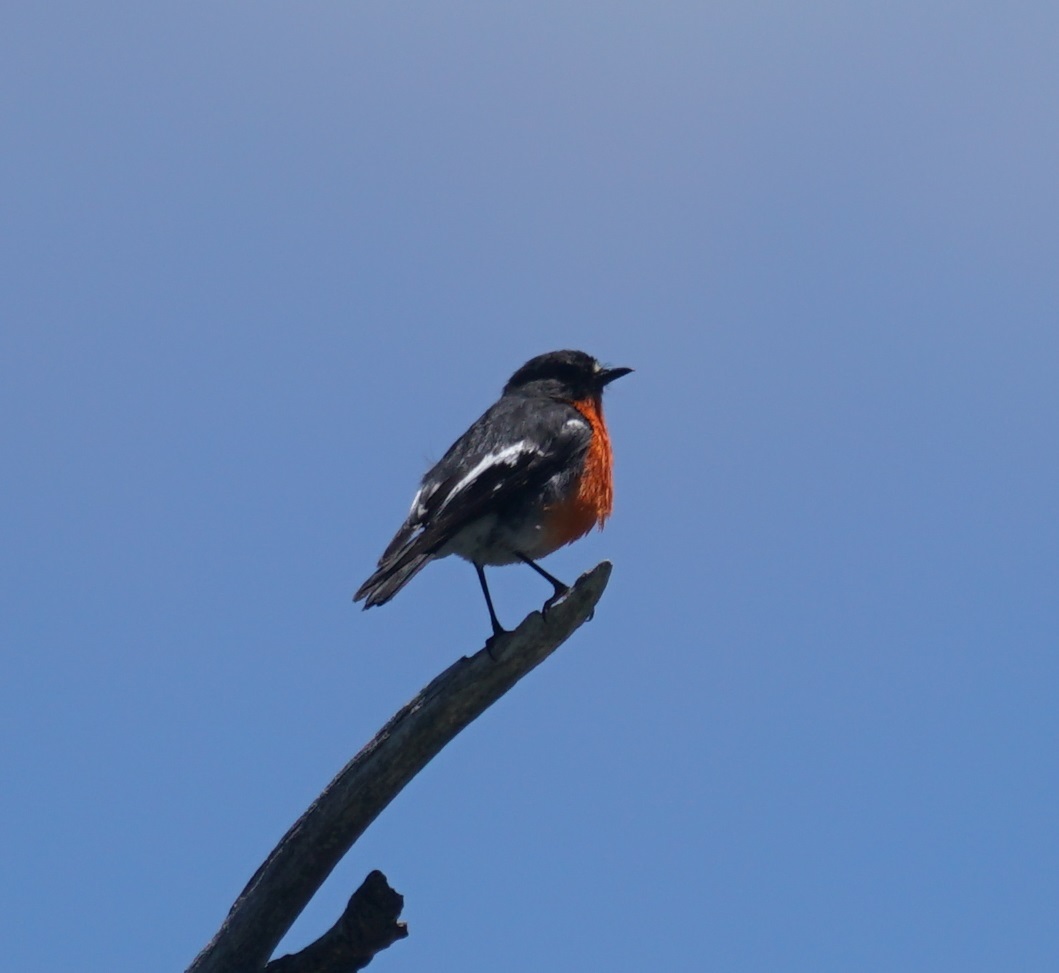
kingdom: Animalia
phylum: Chordata
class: Aves
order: Passeriformes
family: Petroicidae
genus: Petroica
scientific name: Petroica phoenicea
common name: Flame robin
